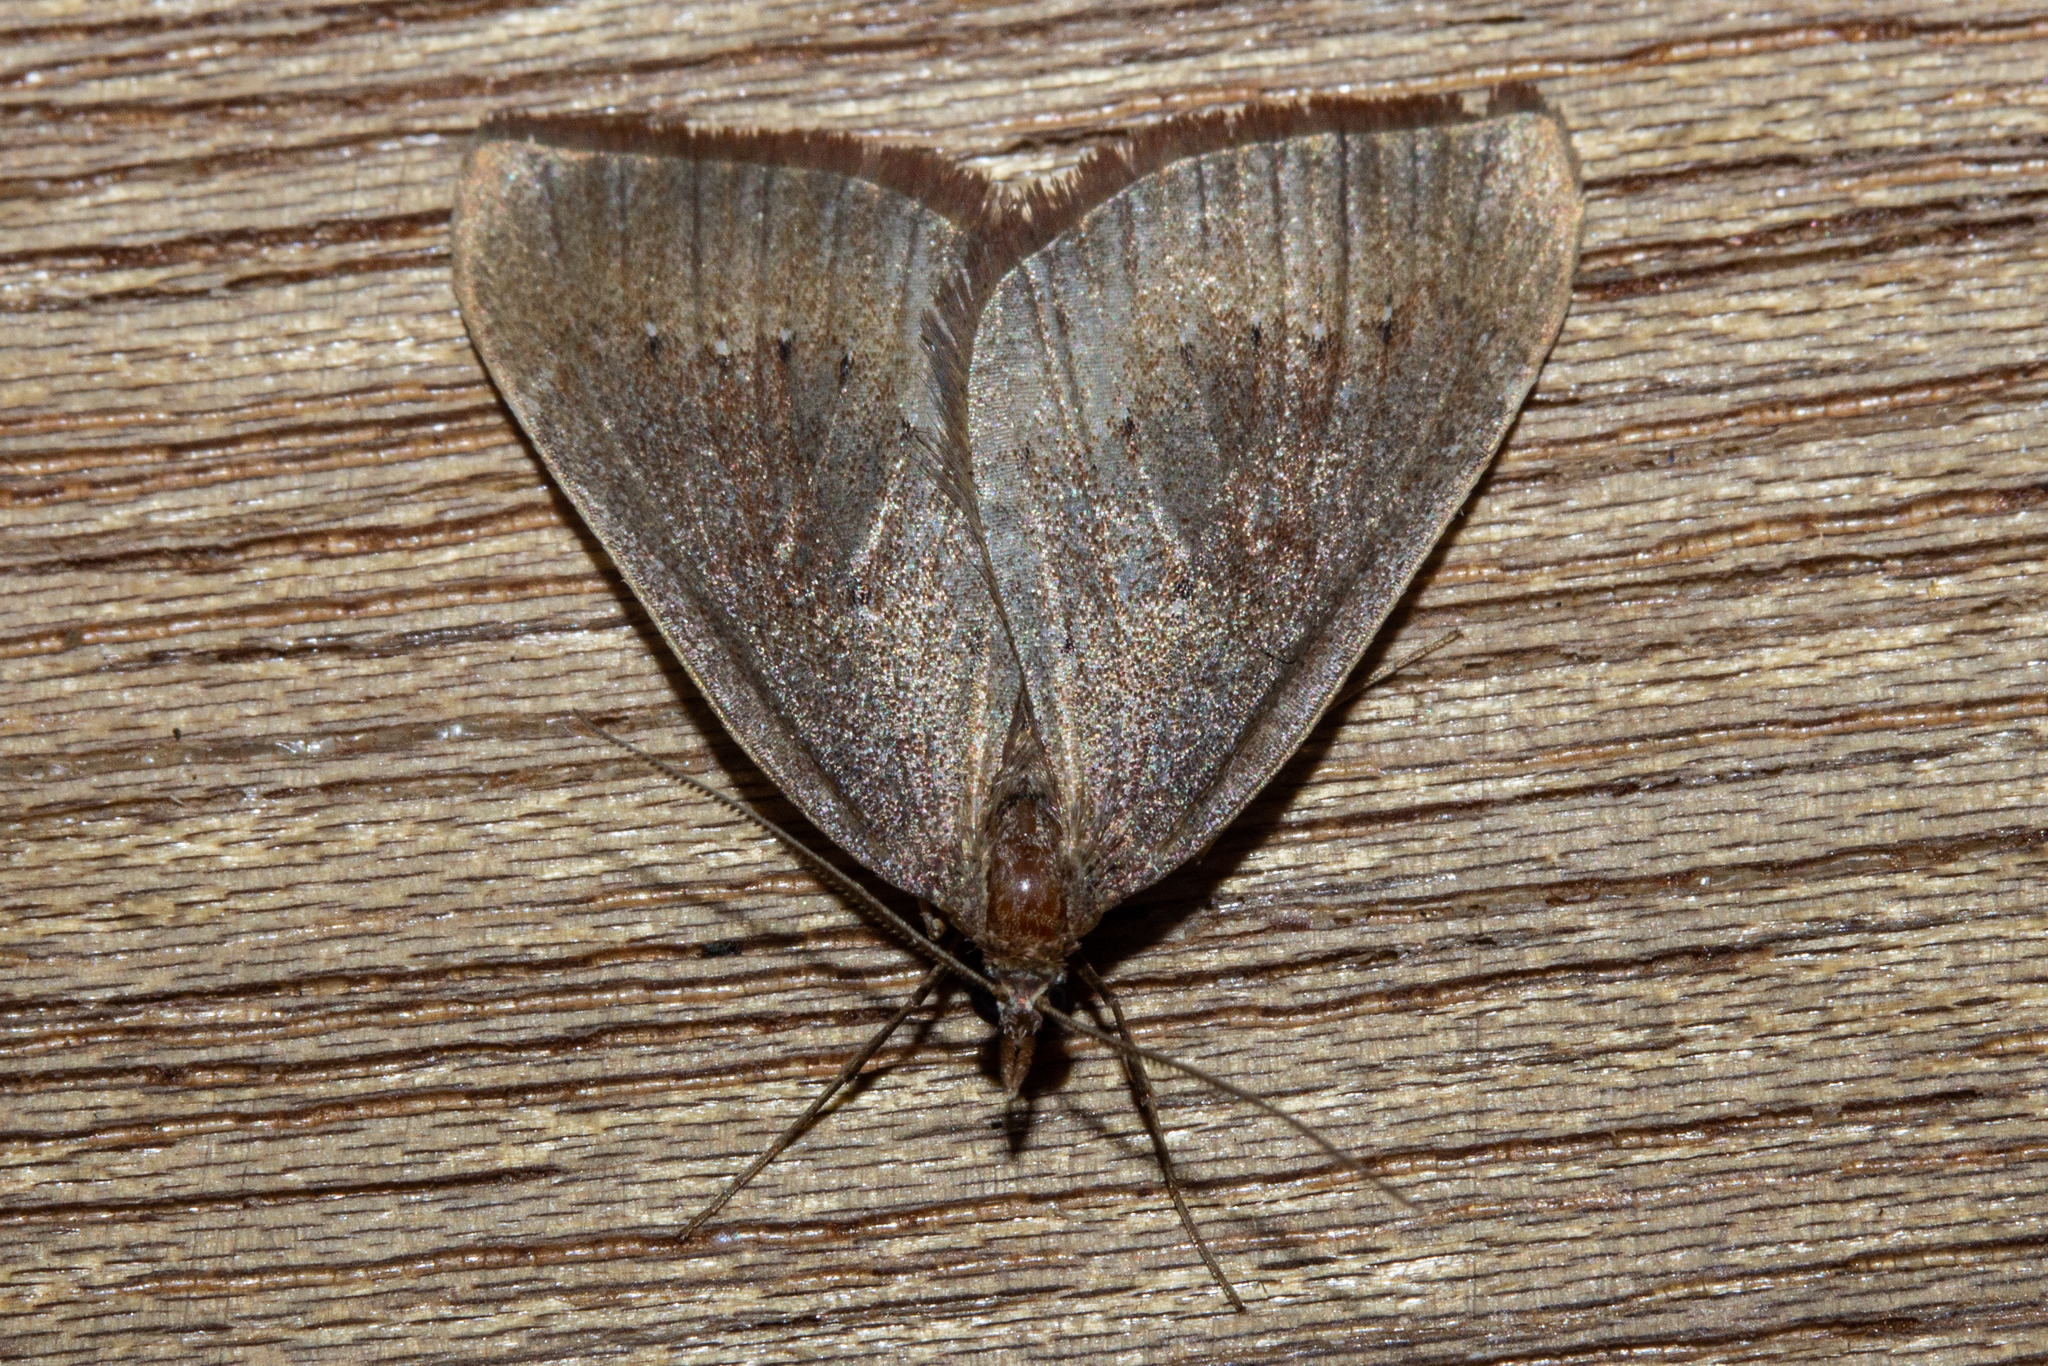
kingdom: Animalia
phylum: Arthropoda
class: Insecta
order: Lepidoptera
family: Geometridae
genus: Xanthorhoe
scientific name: Xanthorhoe occulta
